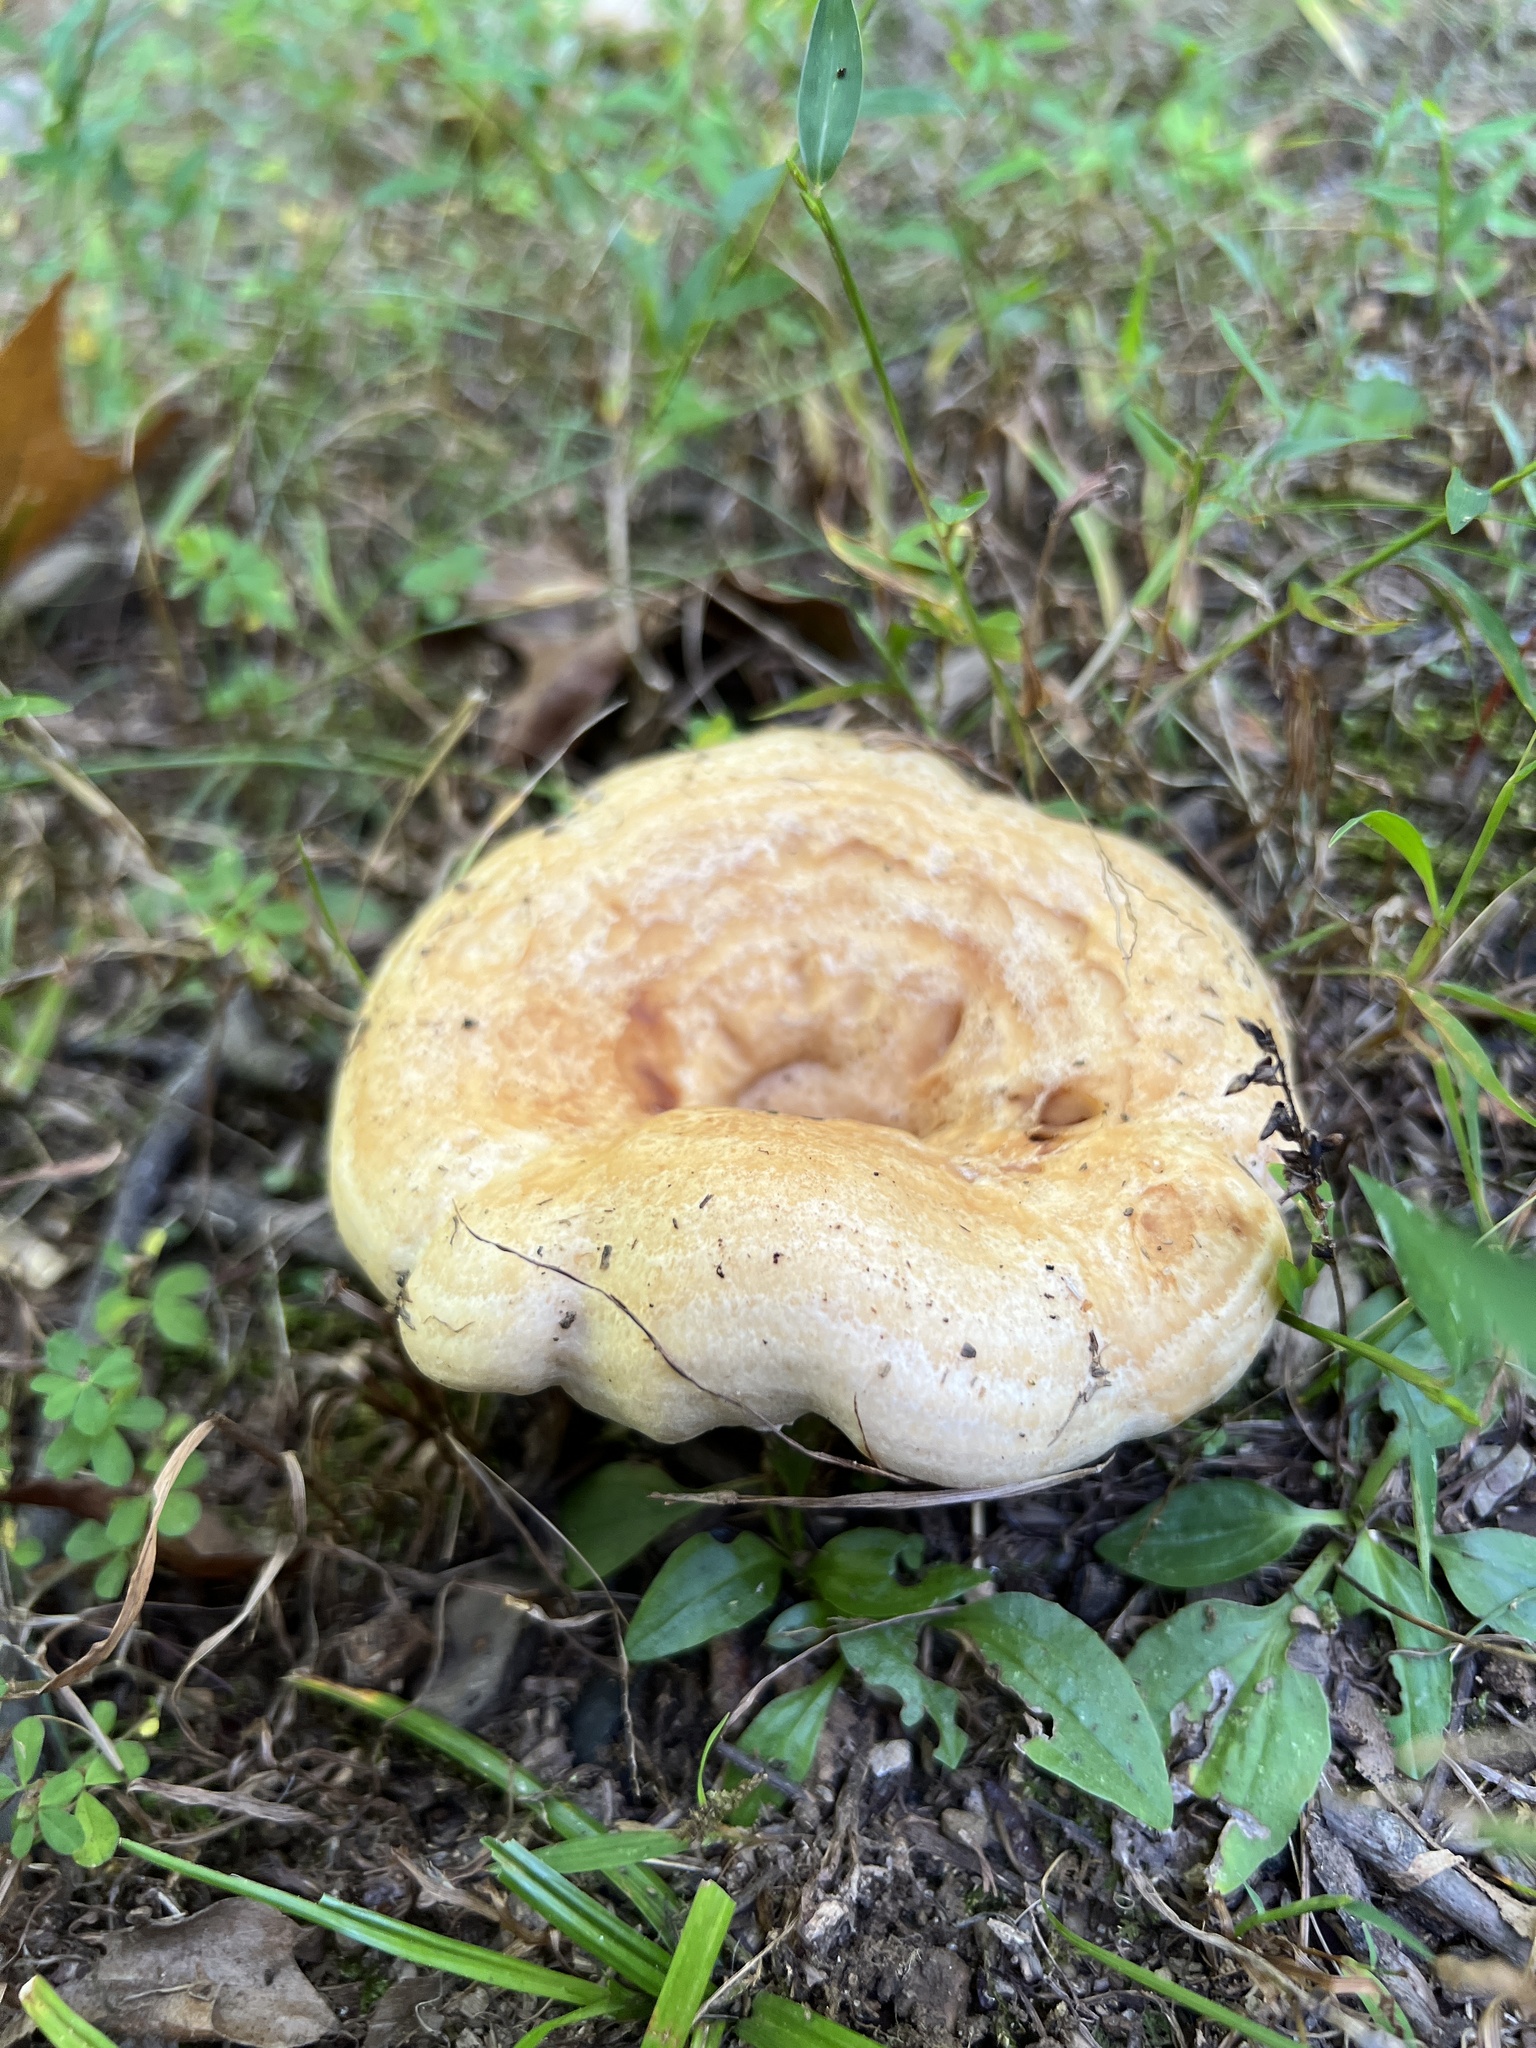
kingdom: Fungi
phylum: Basidiomycota
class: Agaricomycetes
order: Russulales
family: Russulaceae
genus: Lactarius
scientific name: Lactarius psammicola
